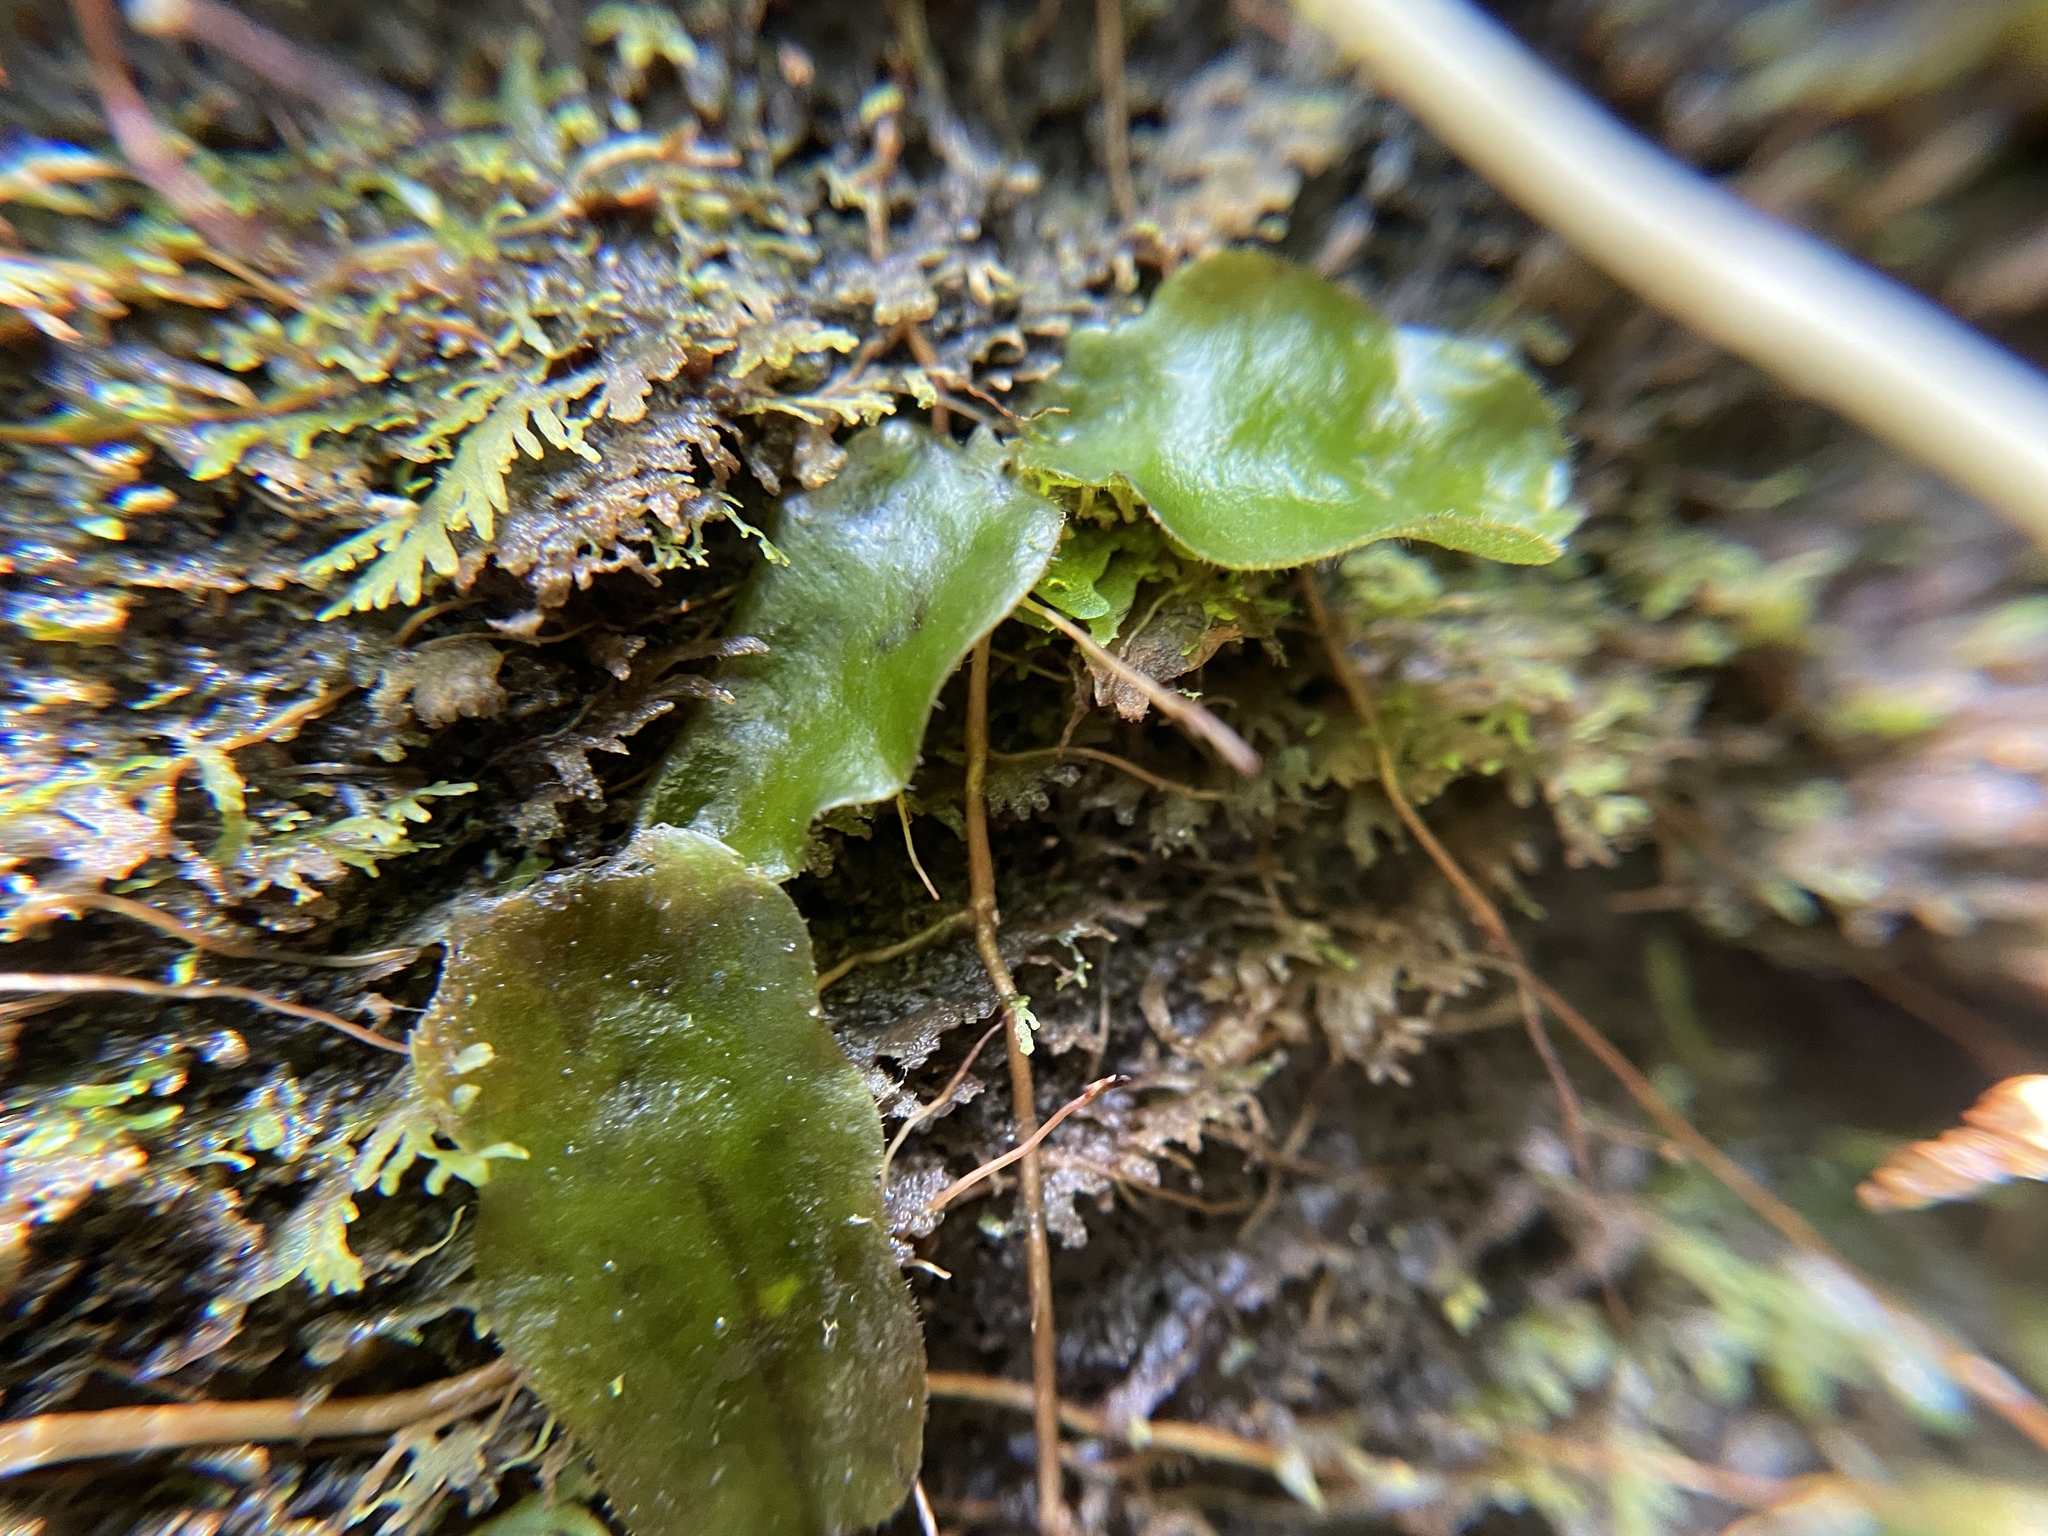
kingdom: Plantae
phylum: Marchantiophyta
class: Marchantiopsida
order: Marchantiales
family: Dumortieraceae
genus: Dumortiera
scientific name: Dumortiera hirsuta
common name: Dumortier's liverwort
